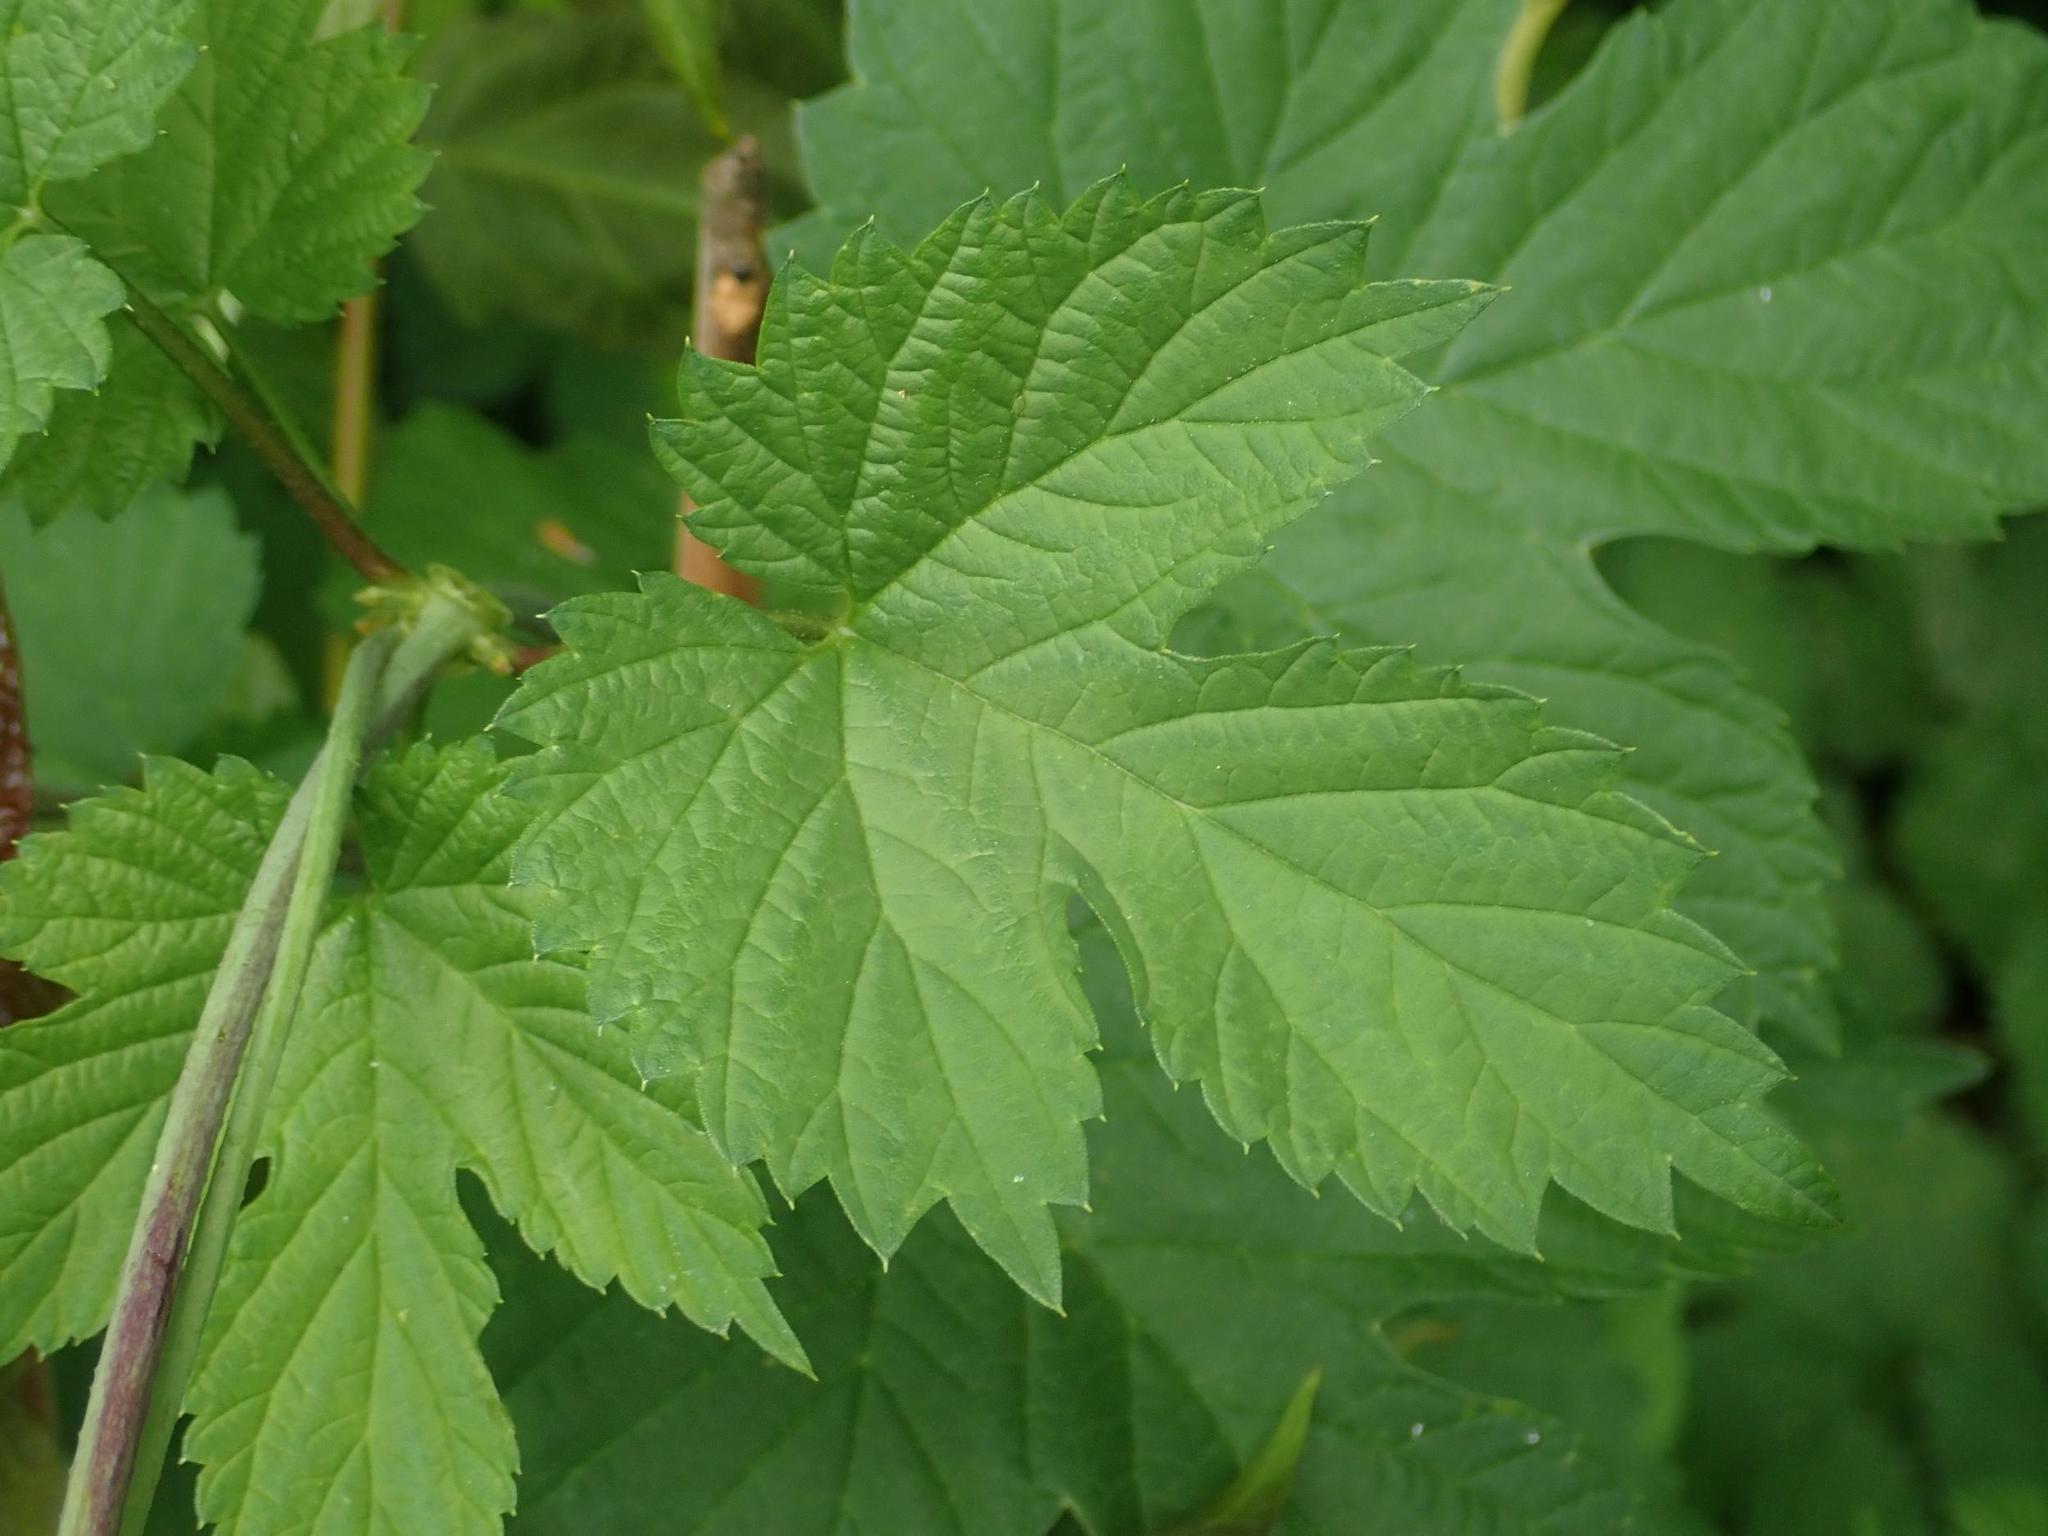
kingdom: Plantae
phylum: Tracheophyta
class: Magnoliopsida
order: Rosales
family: Cannabaceae
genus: Humulus
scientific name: Humulus lupulus
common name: Hop
